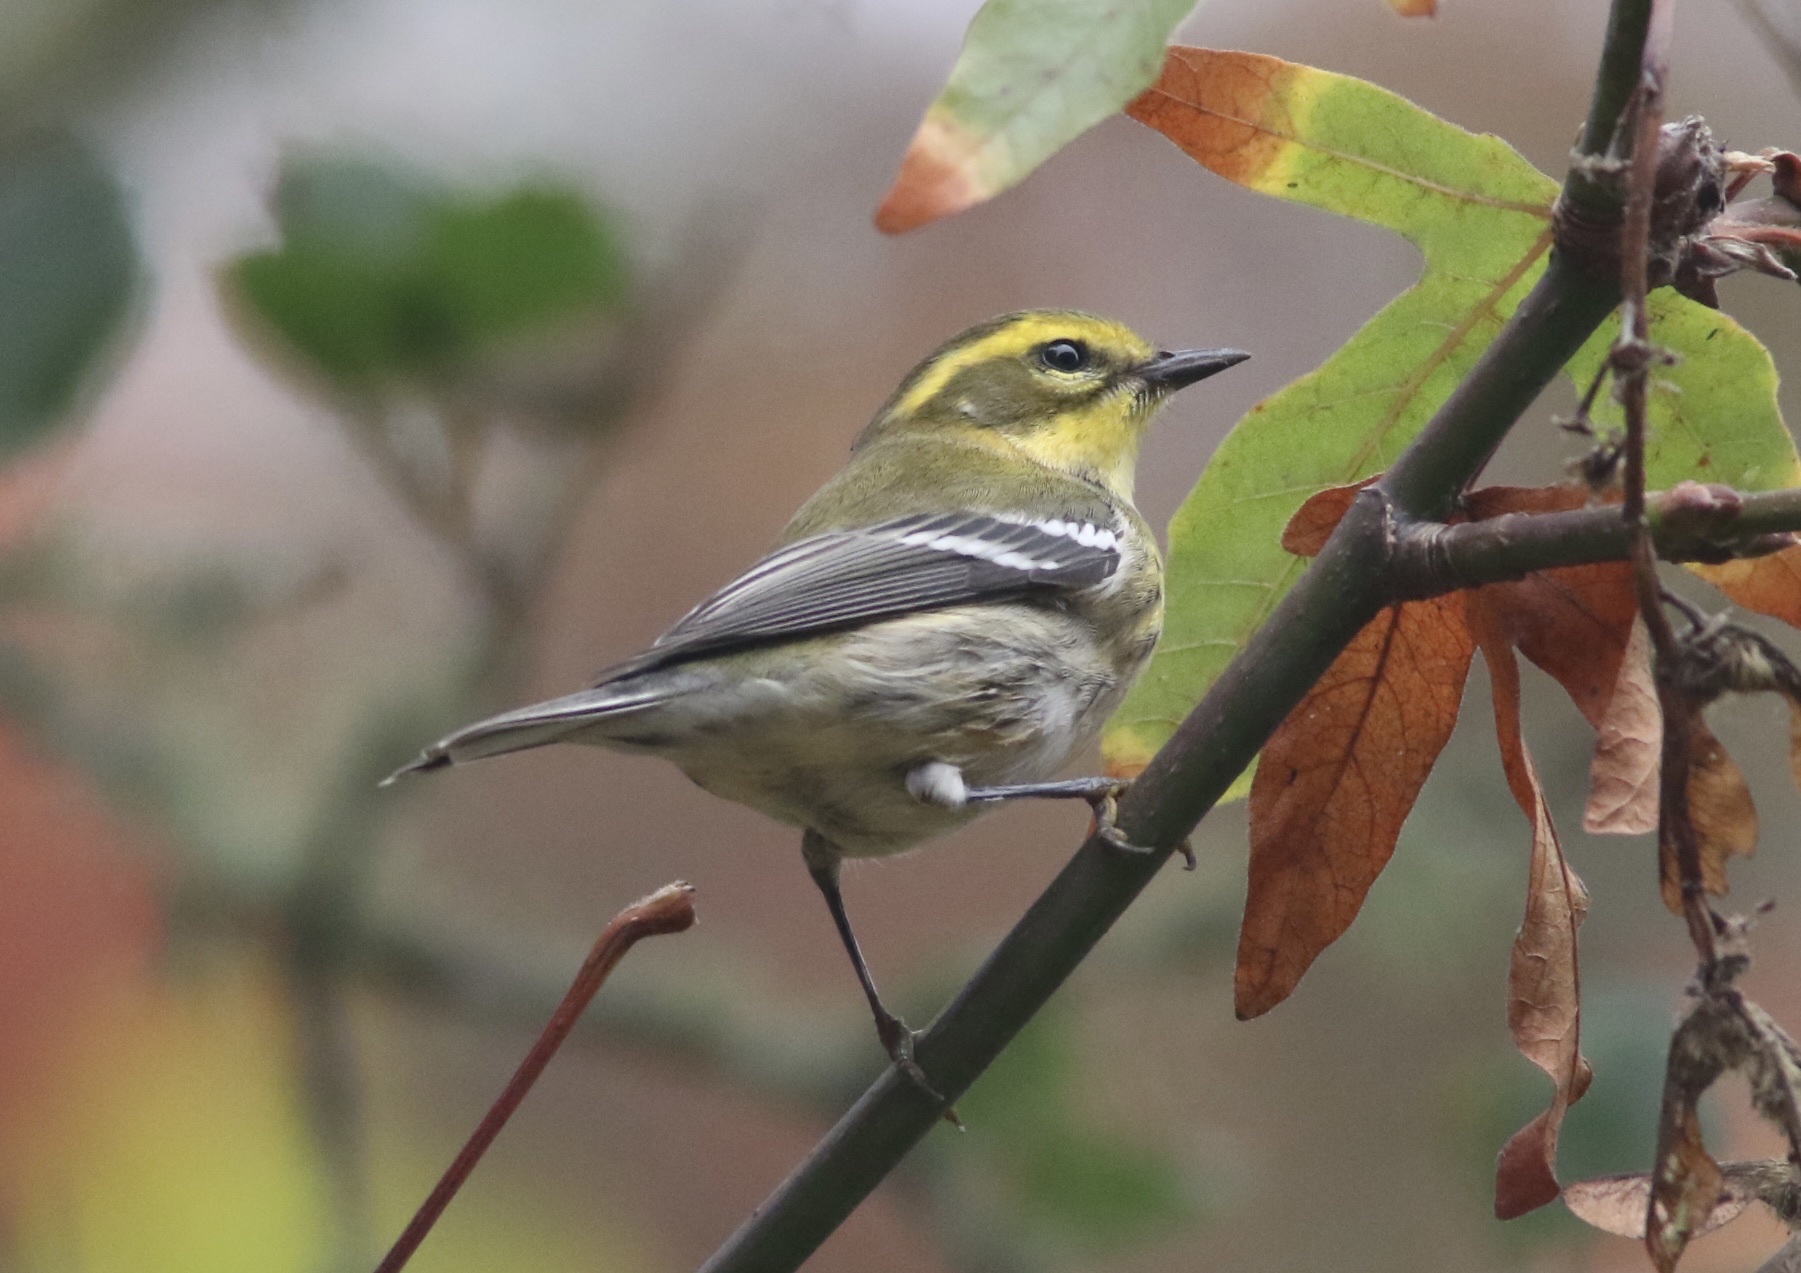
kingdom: Animalia
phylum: Chordata
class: Aves
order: Passeriformes
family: Parulidae
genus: Setophaga
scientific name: Setophaga townsendi
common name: Townsend's warbler
